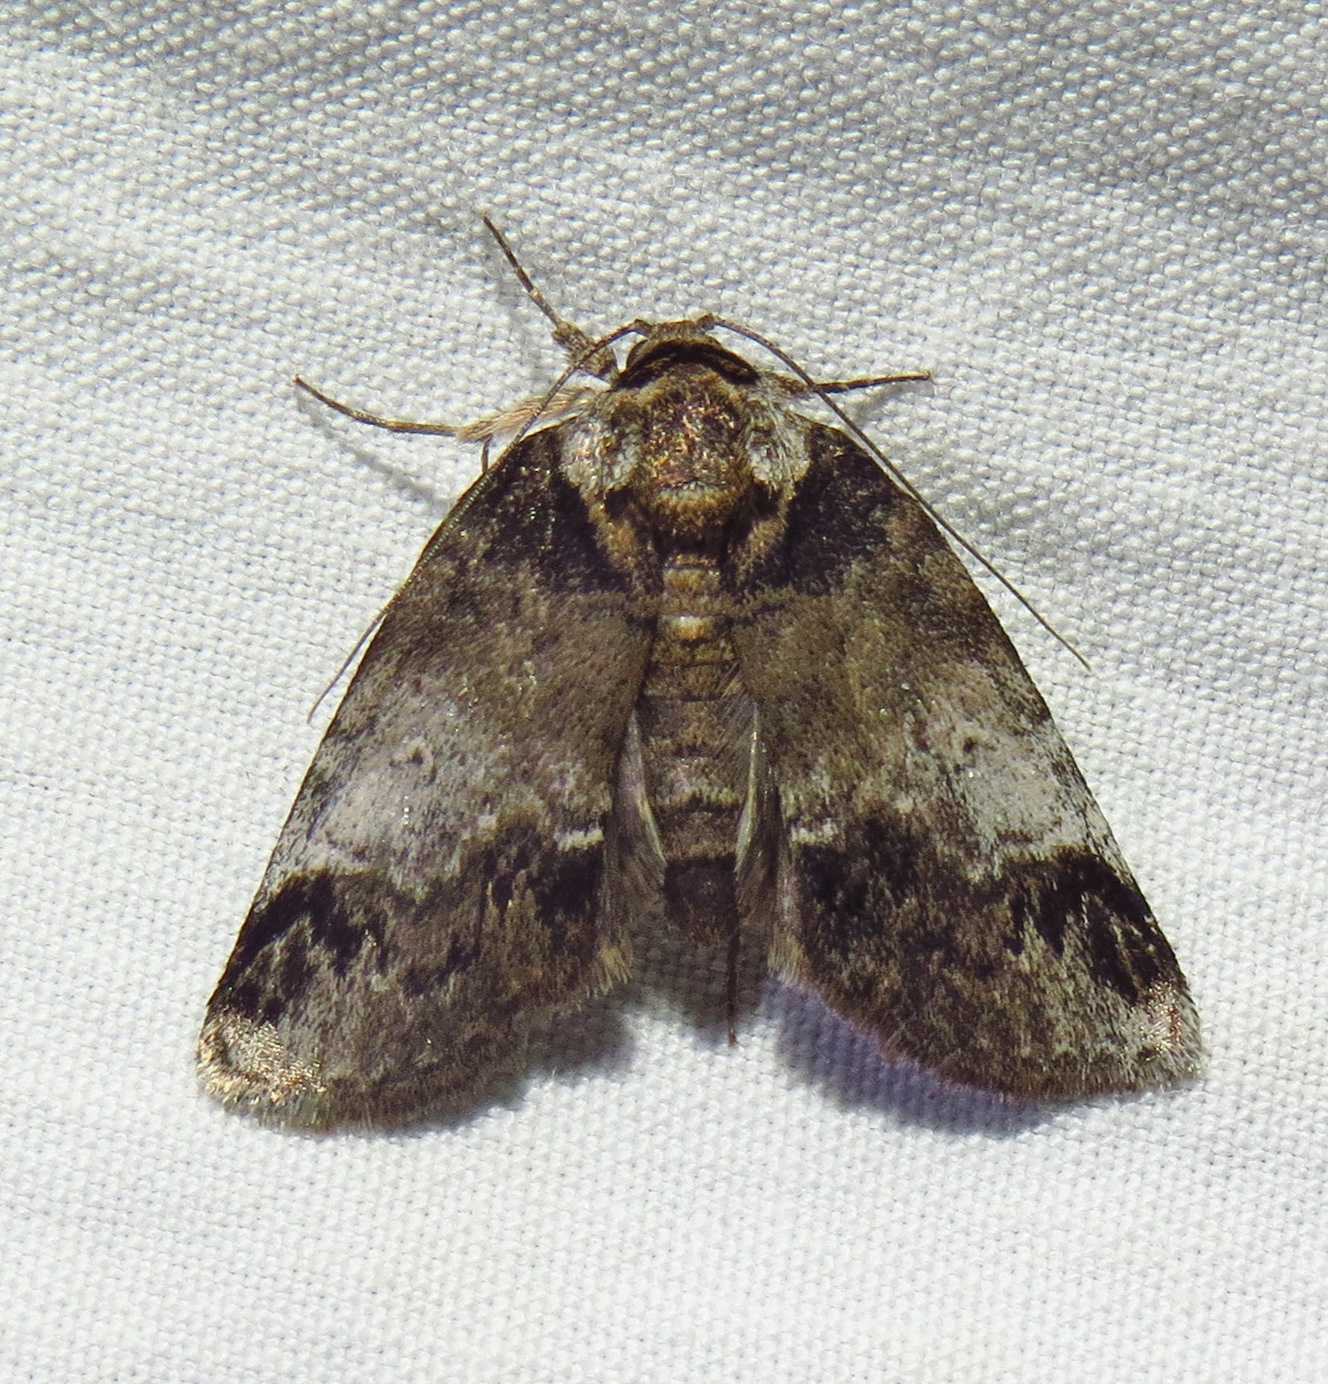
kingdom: Animalia
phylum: Arthropoda
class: Insecta
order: Lepidoptera
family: Nolidae
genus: Baileya
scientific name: Baileya levitans
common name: Pale baileya
